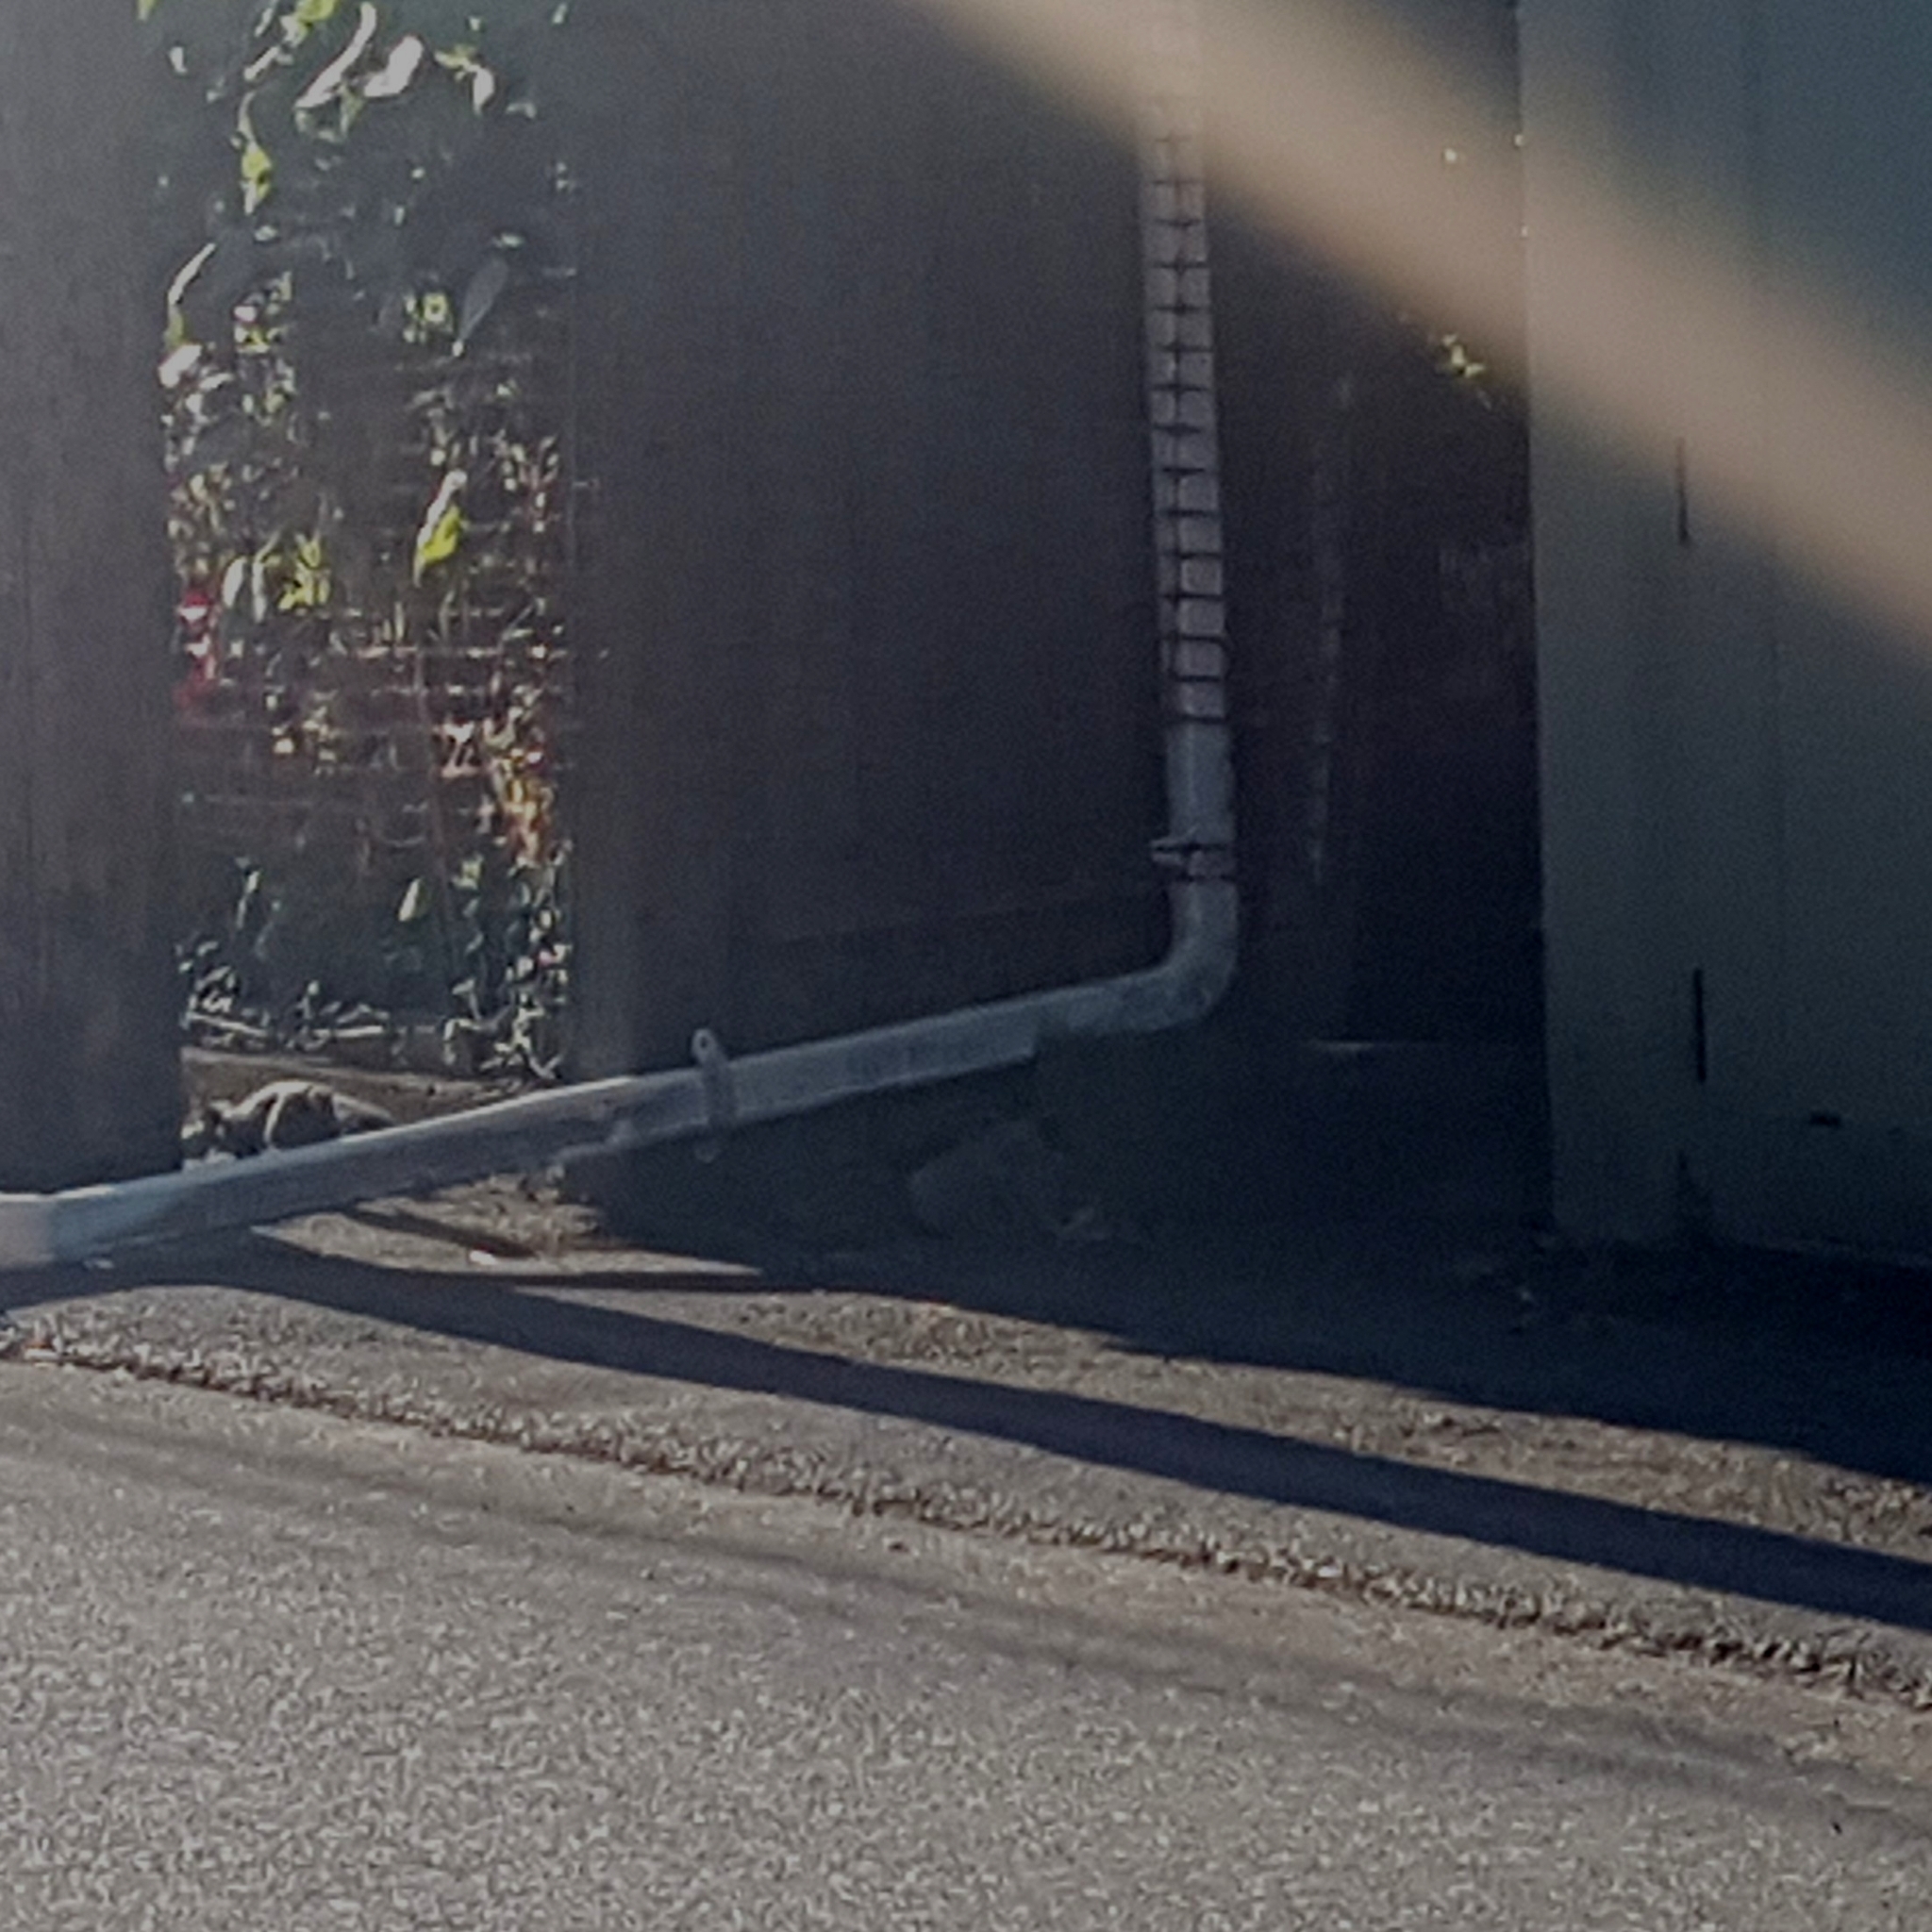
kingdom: Animalia
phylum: Chordata
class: Mammalia
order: Rodentia
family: Sciuridae
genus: Sciurus
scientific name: Sciurus carolinensis
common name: Eastern gray squirrel
